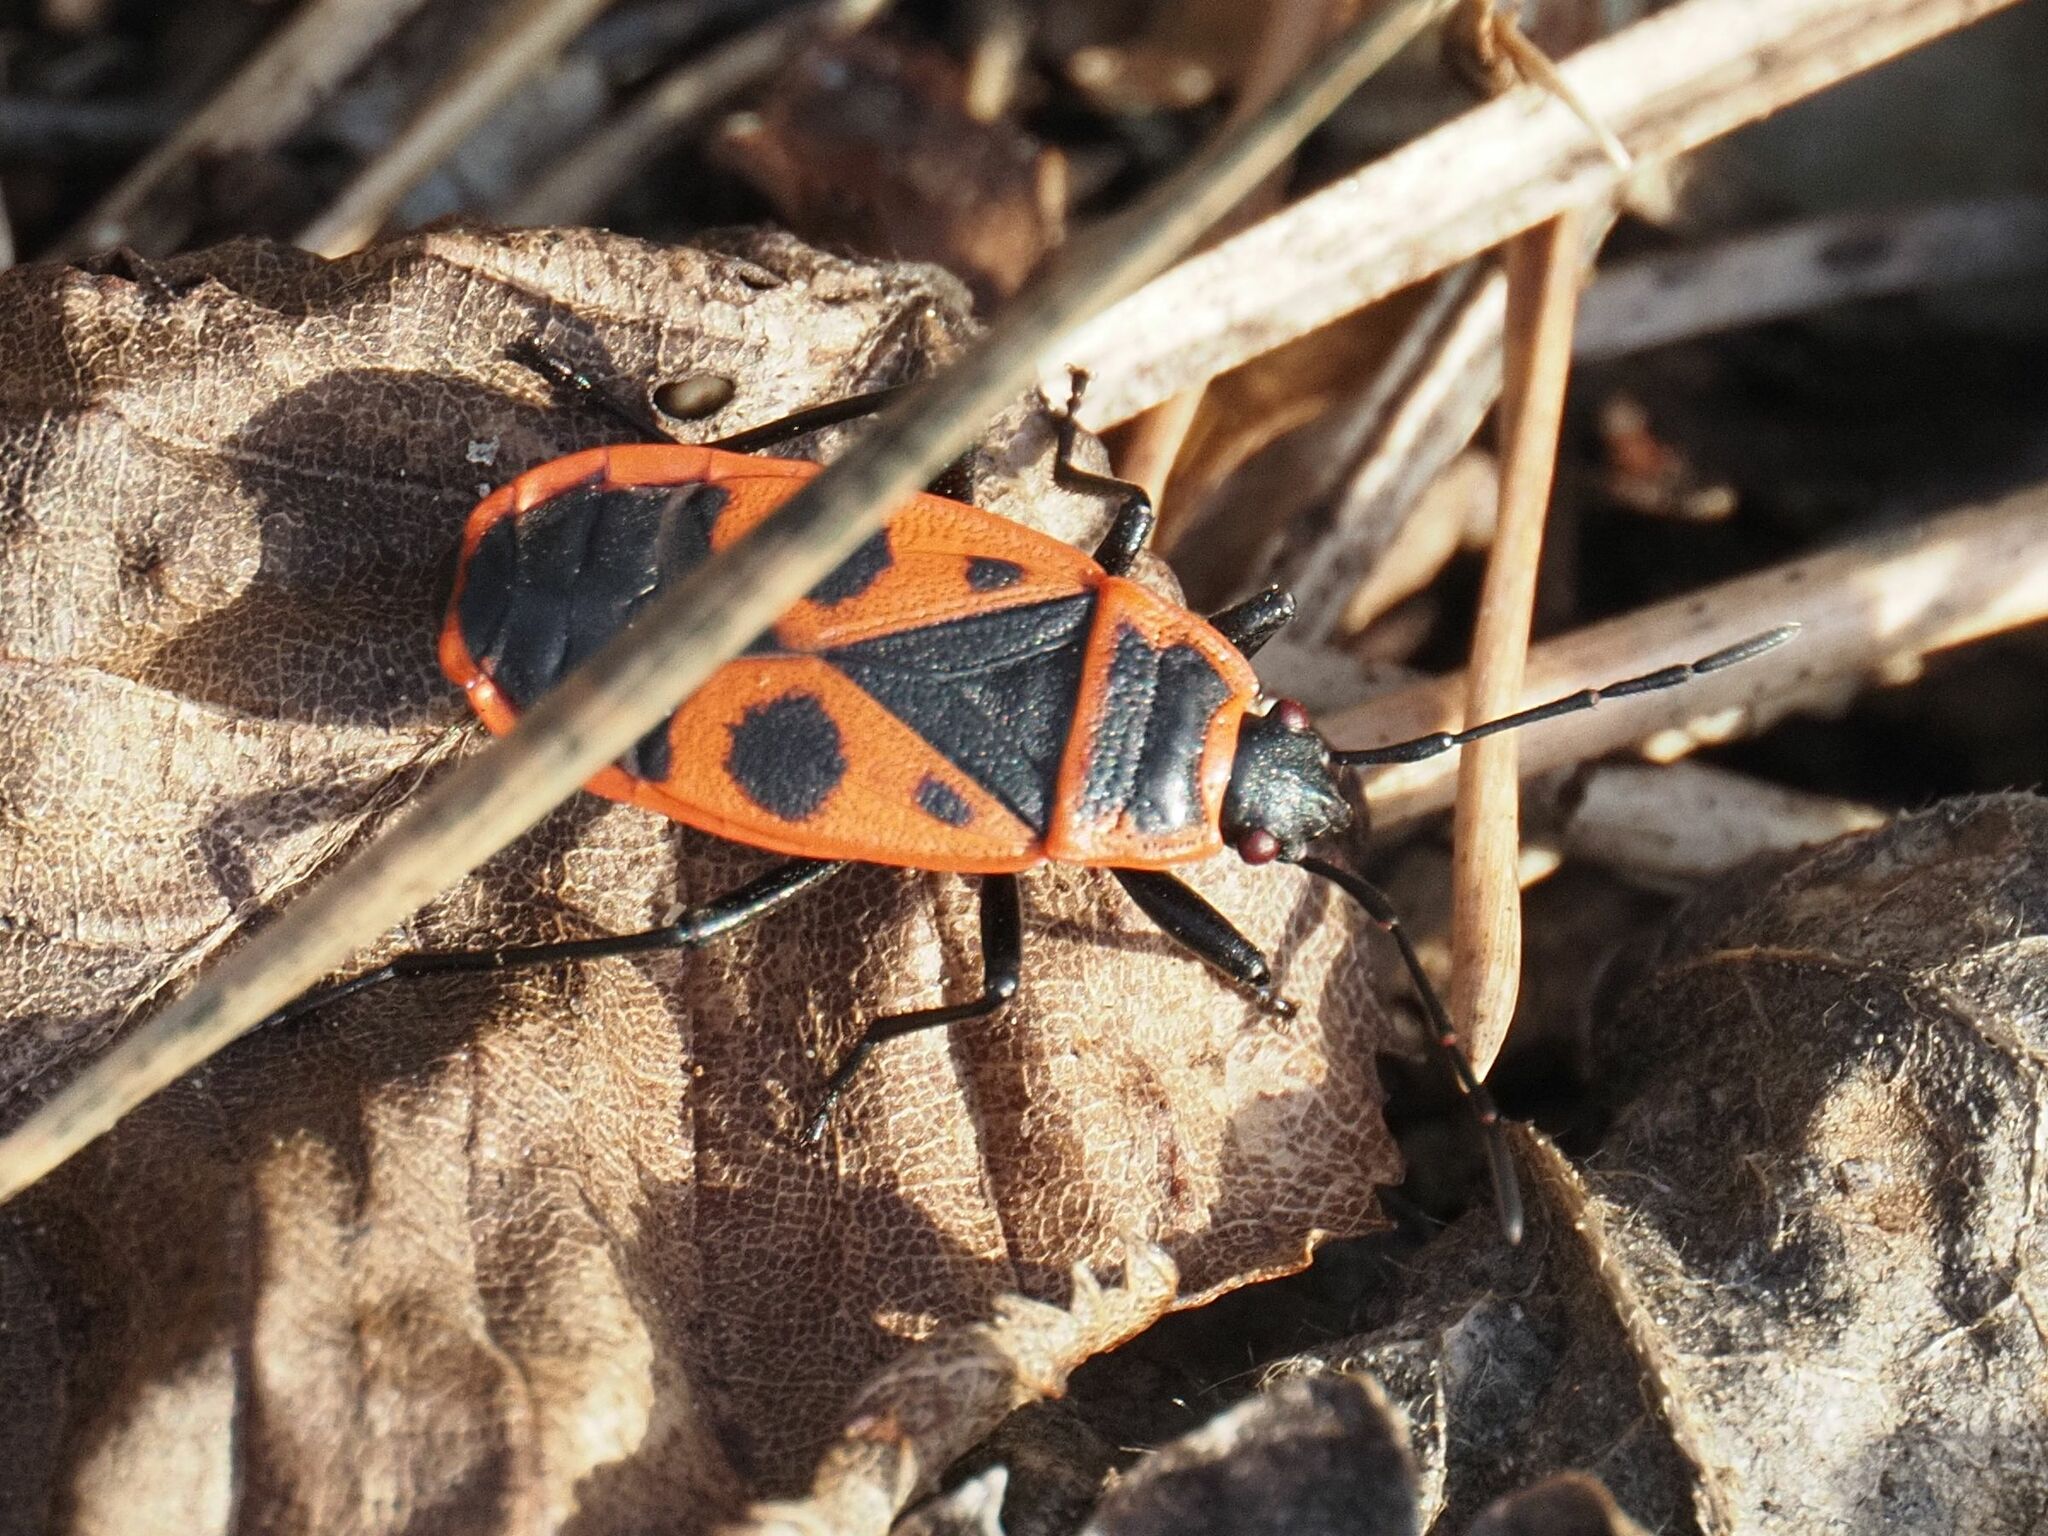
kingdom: Animalia
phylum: Arthropoda
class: Insecta
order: Hemiptera
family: Pyrrhocoridae
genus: Pyrrhocoris
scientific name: Pyrrhocoris apterus
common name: Firebug
